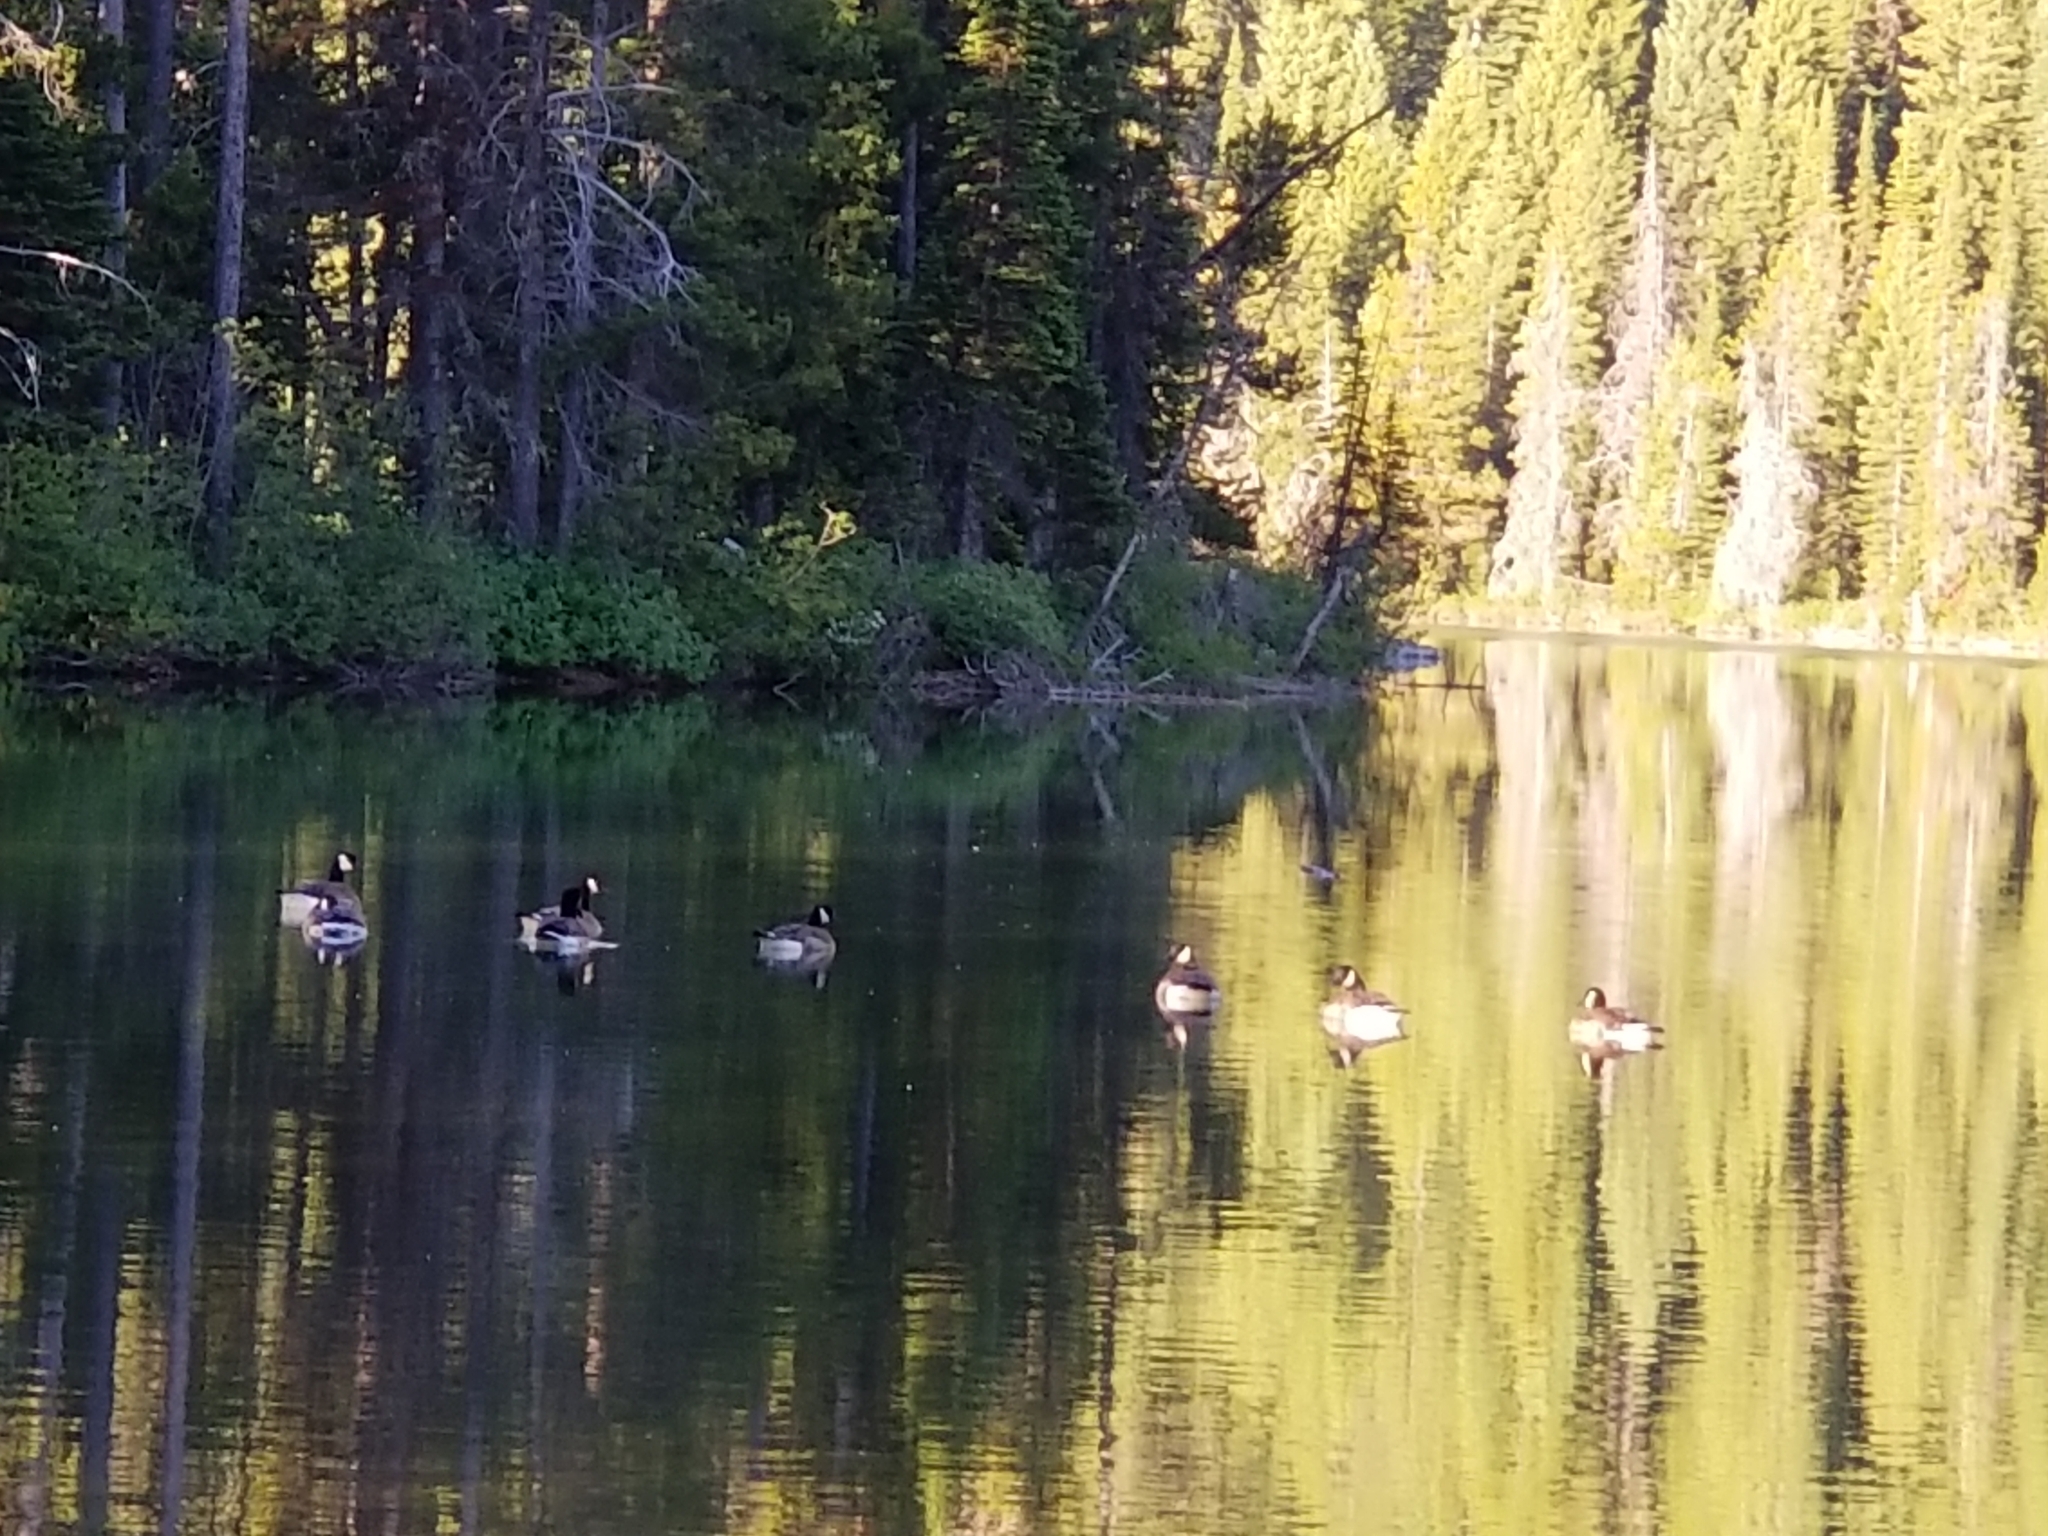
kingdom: Animalia
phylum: Chordata
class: Aves
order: Anseriformes
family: Anatidae
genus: Branta
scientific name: Branta canadensis
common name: Canada goose
